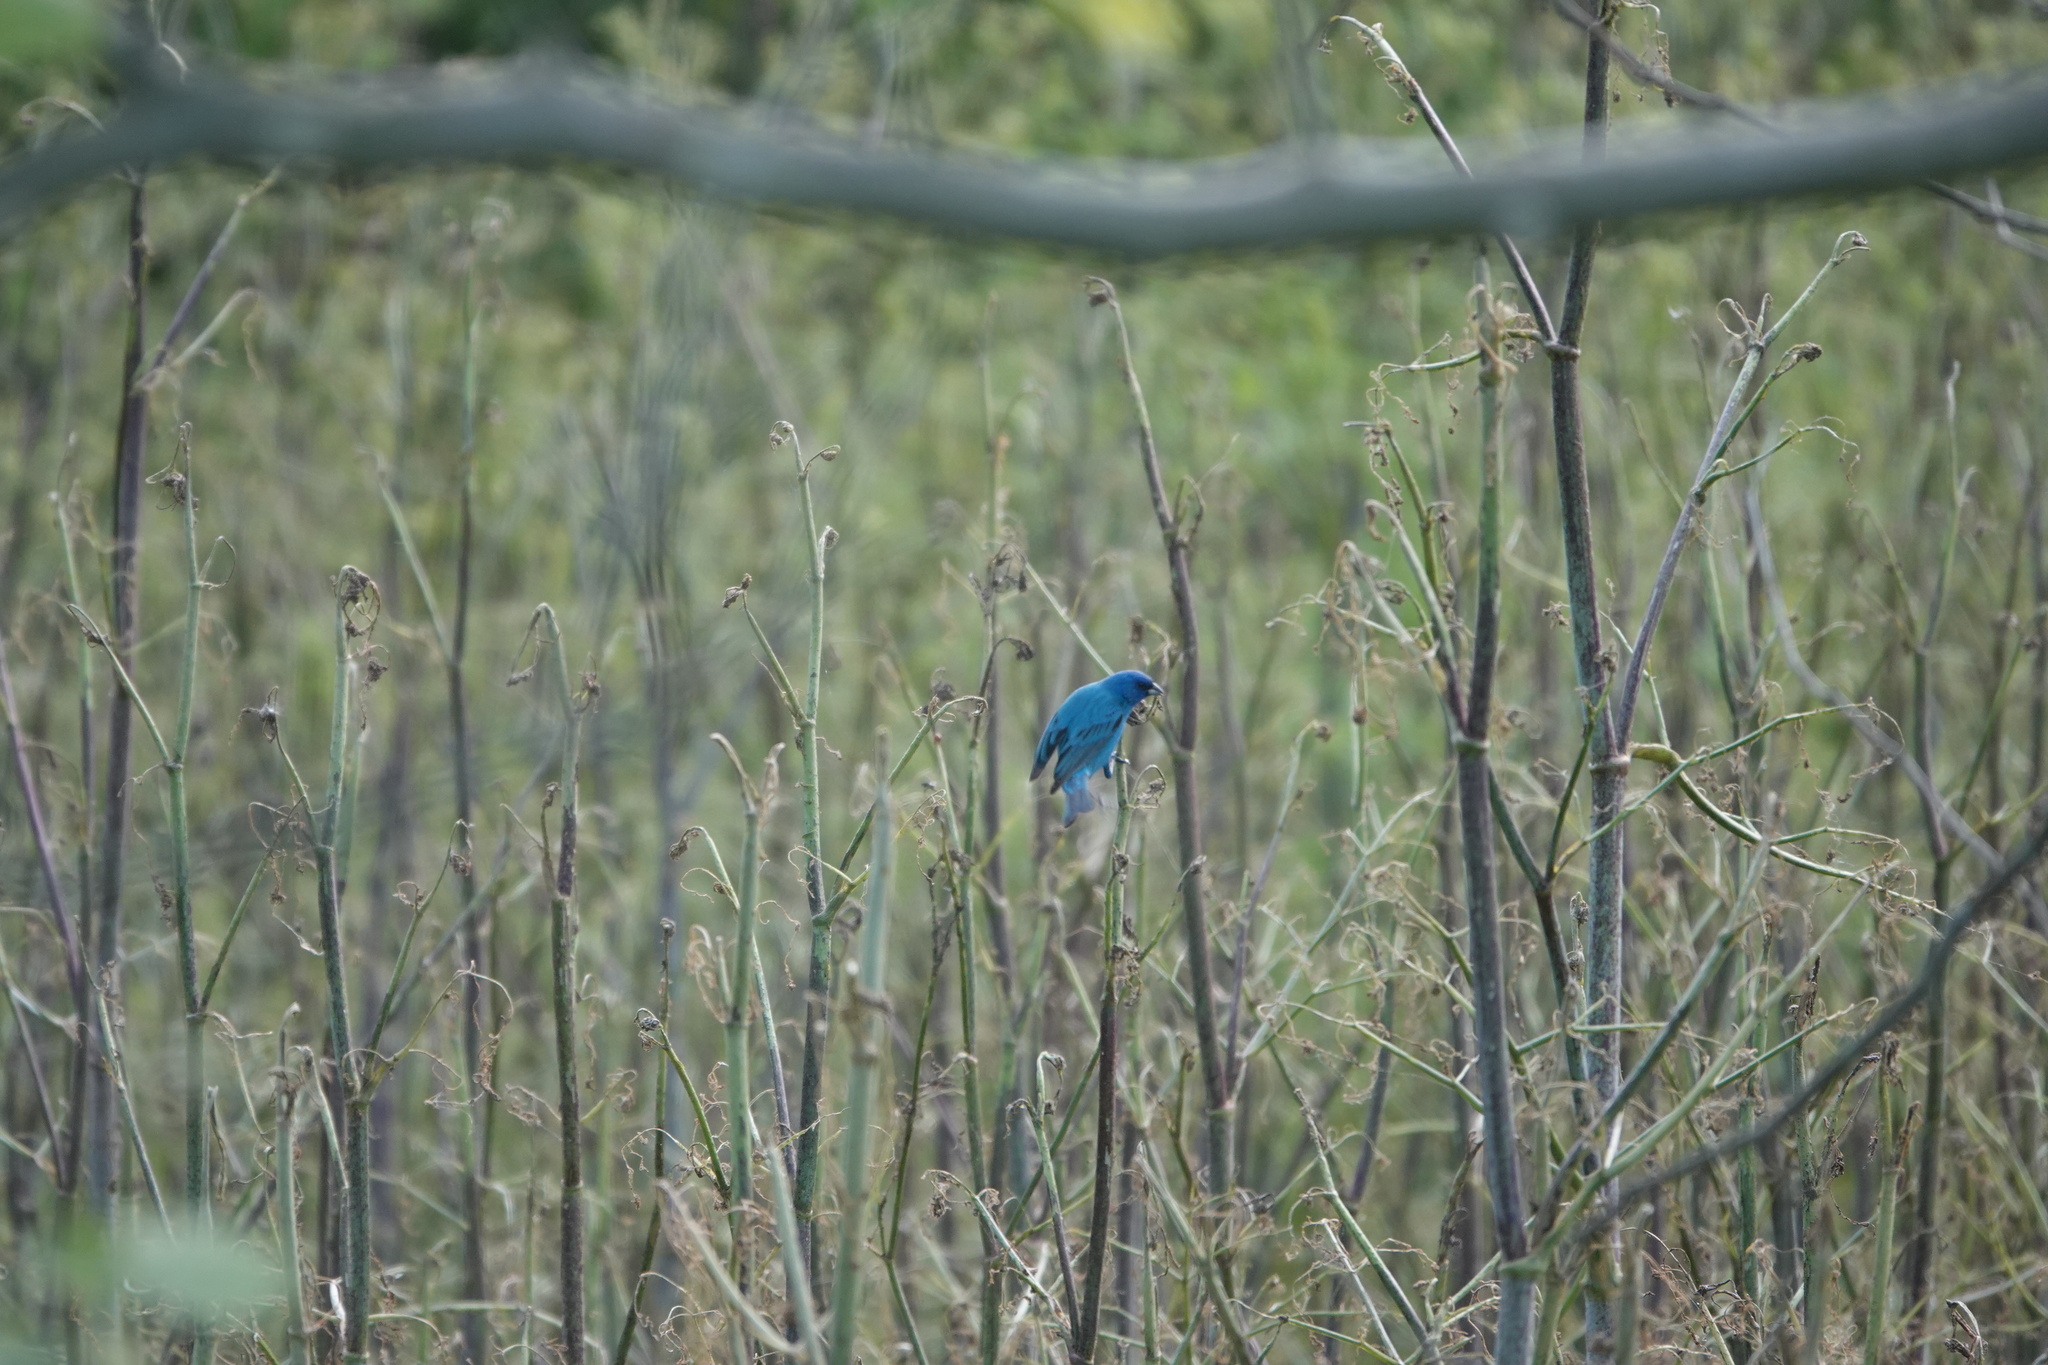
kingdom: Animalia
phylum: Chordata
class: Aves
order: Passeriformes
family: Cardinalidae
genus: Passerina
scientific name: Passerina cyanea
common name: Indigo bunting
